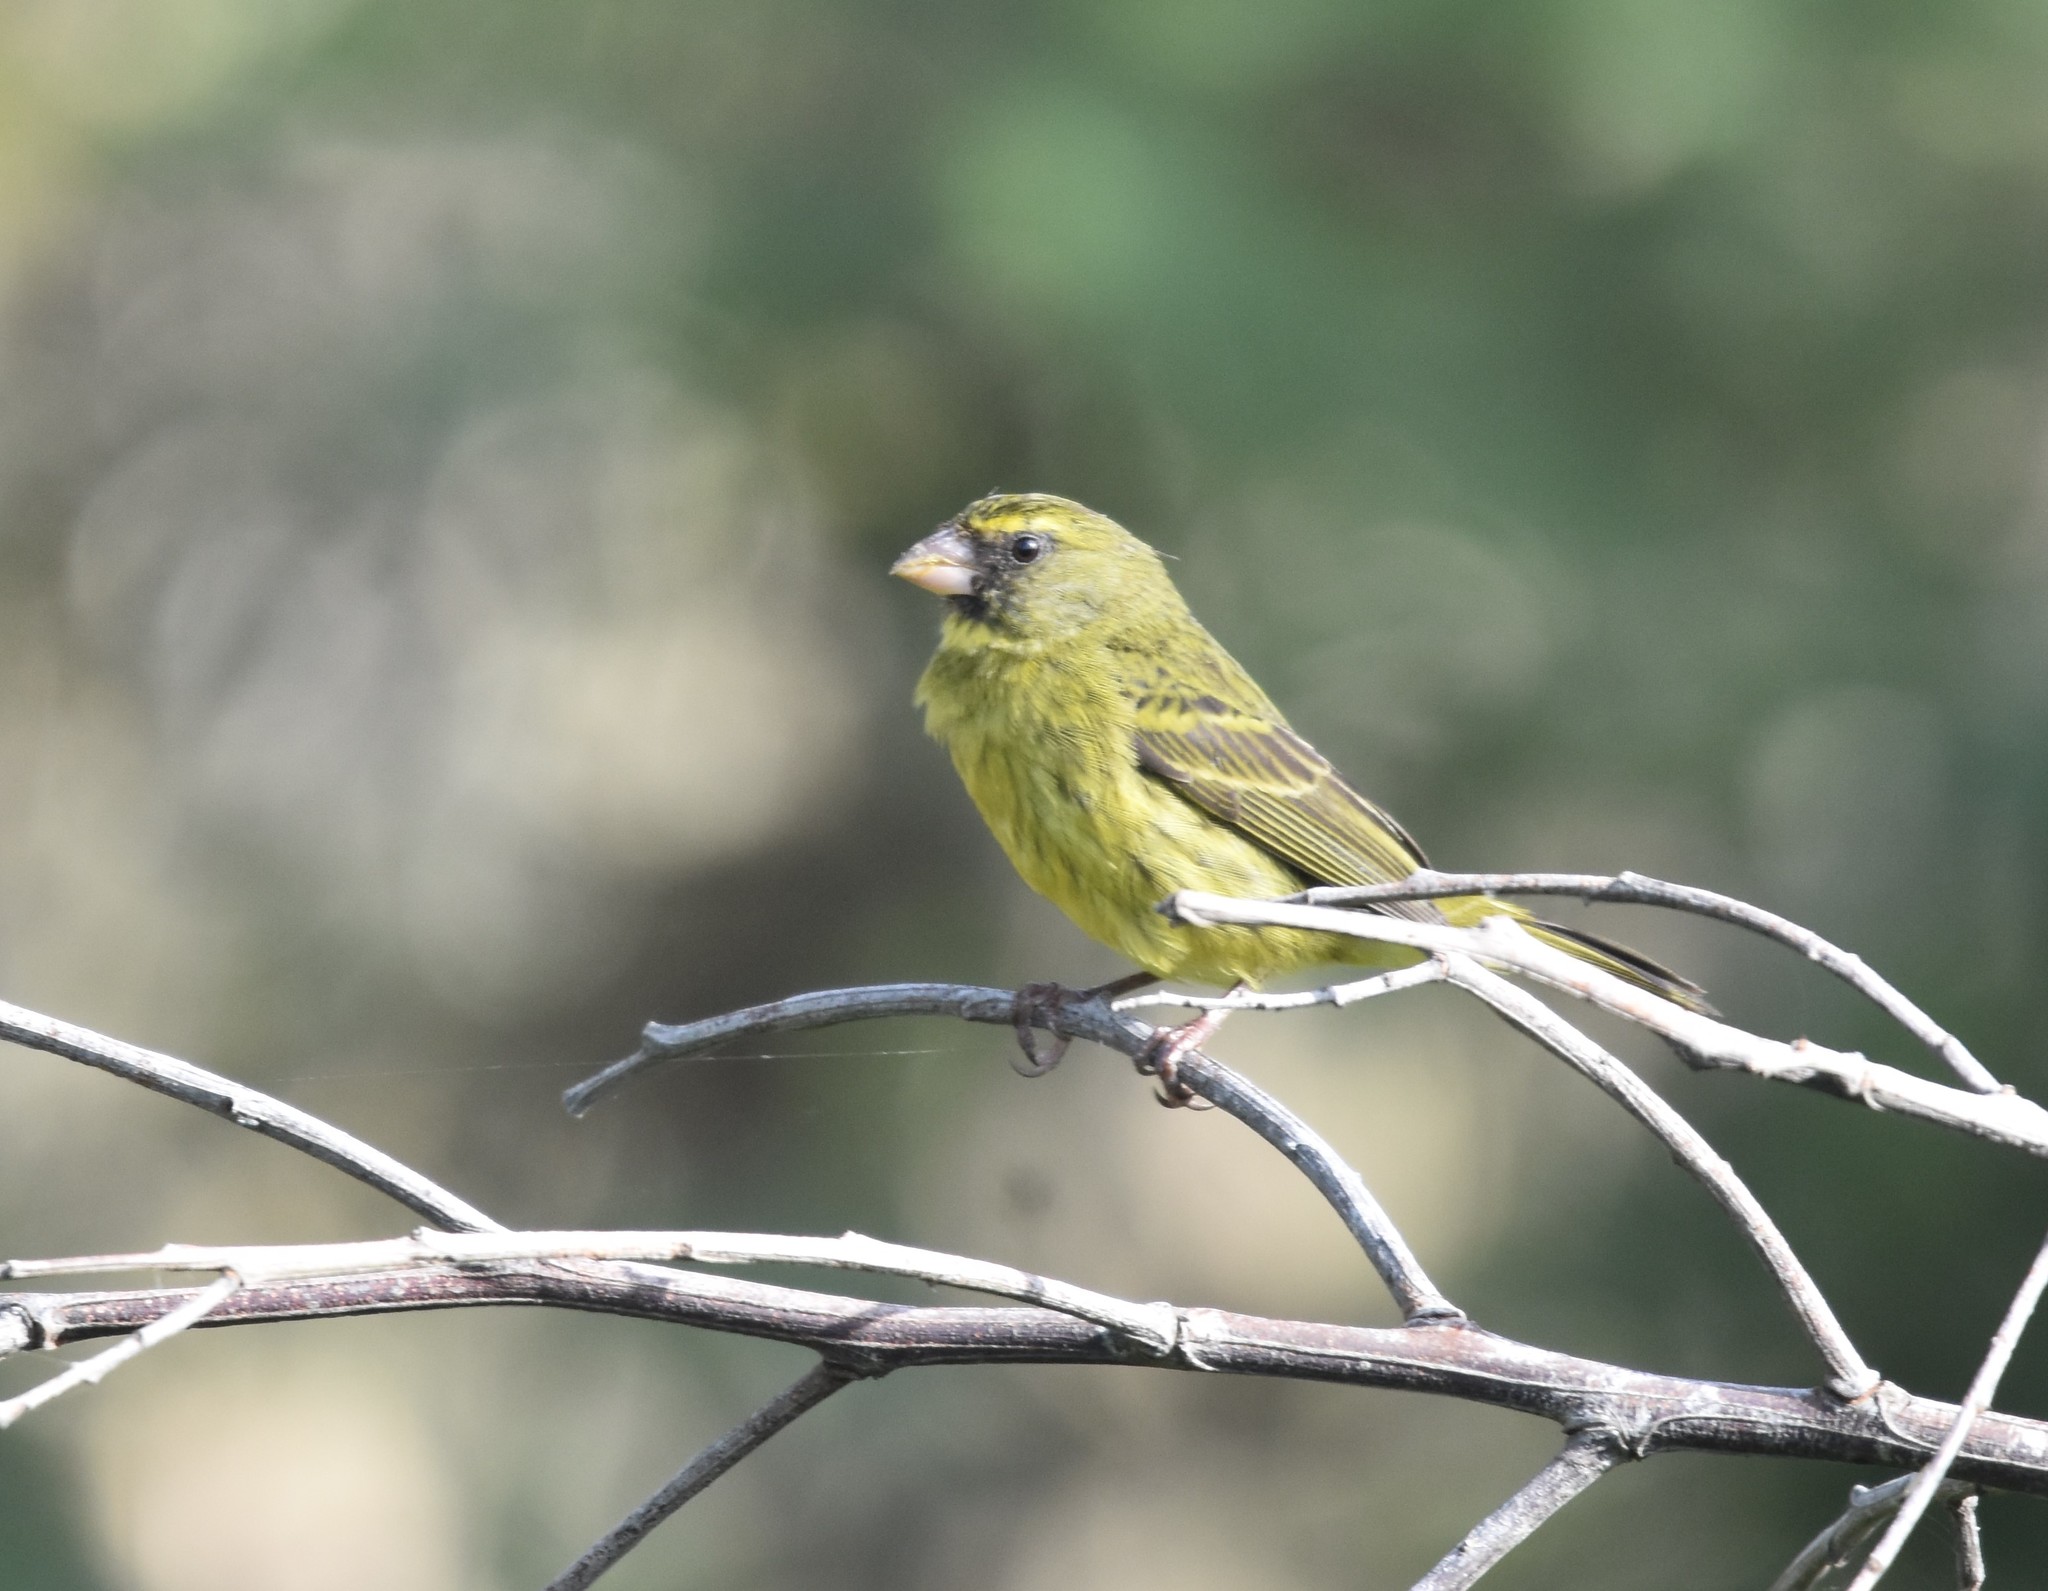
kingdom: Animalia
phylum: Chordata
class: Aves
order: Passeriformes
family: Fringillidae
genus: Crithagra
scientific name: Crithagra scotops
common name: Forest canary
